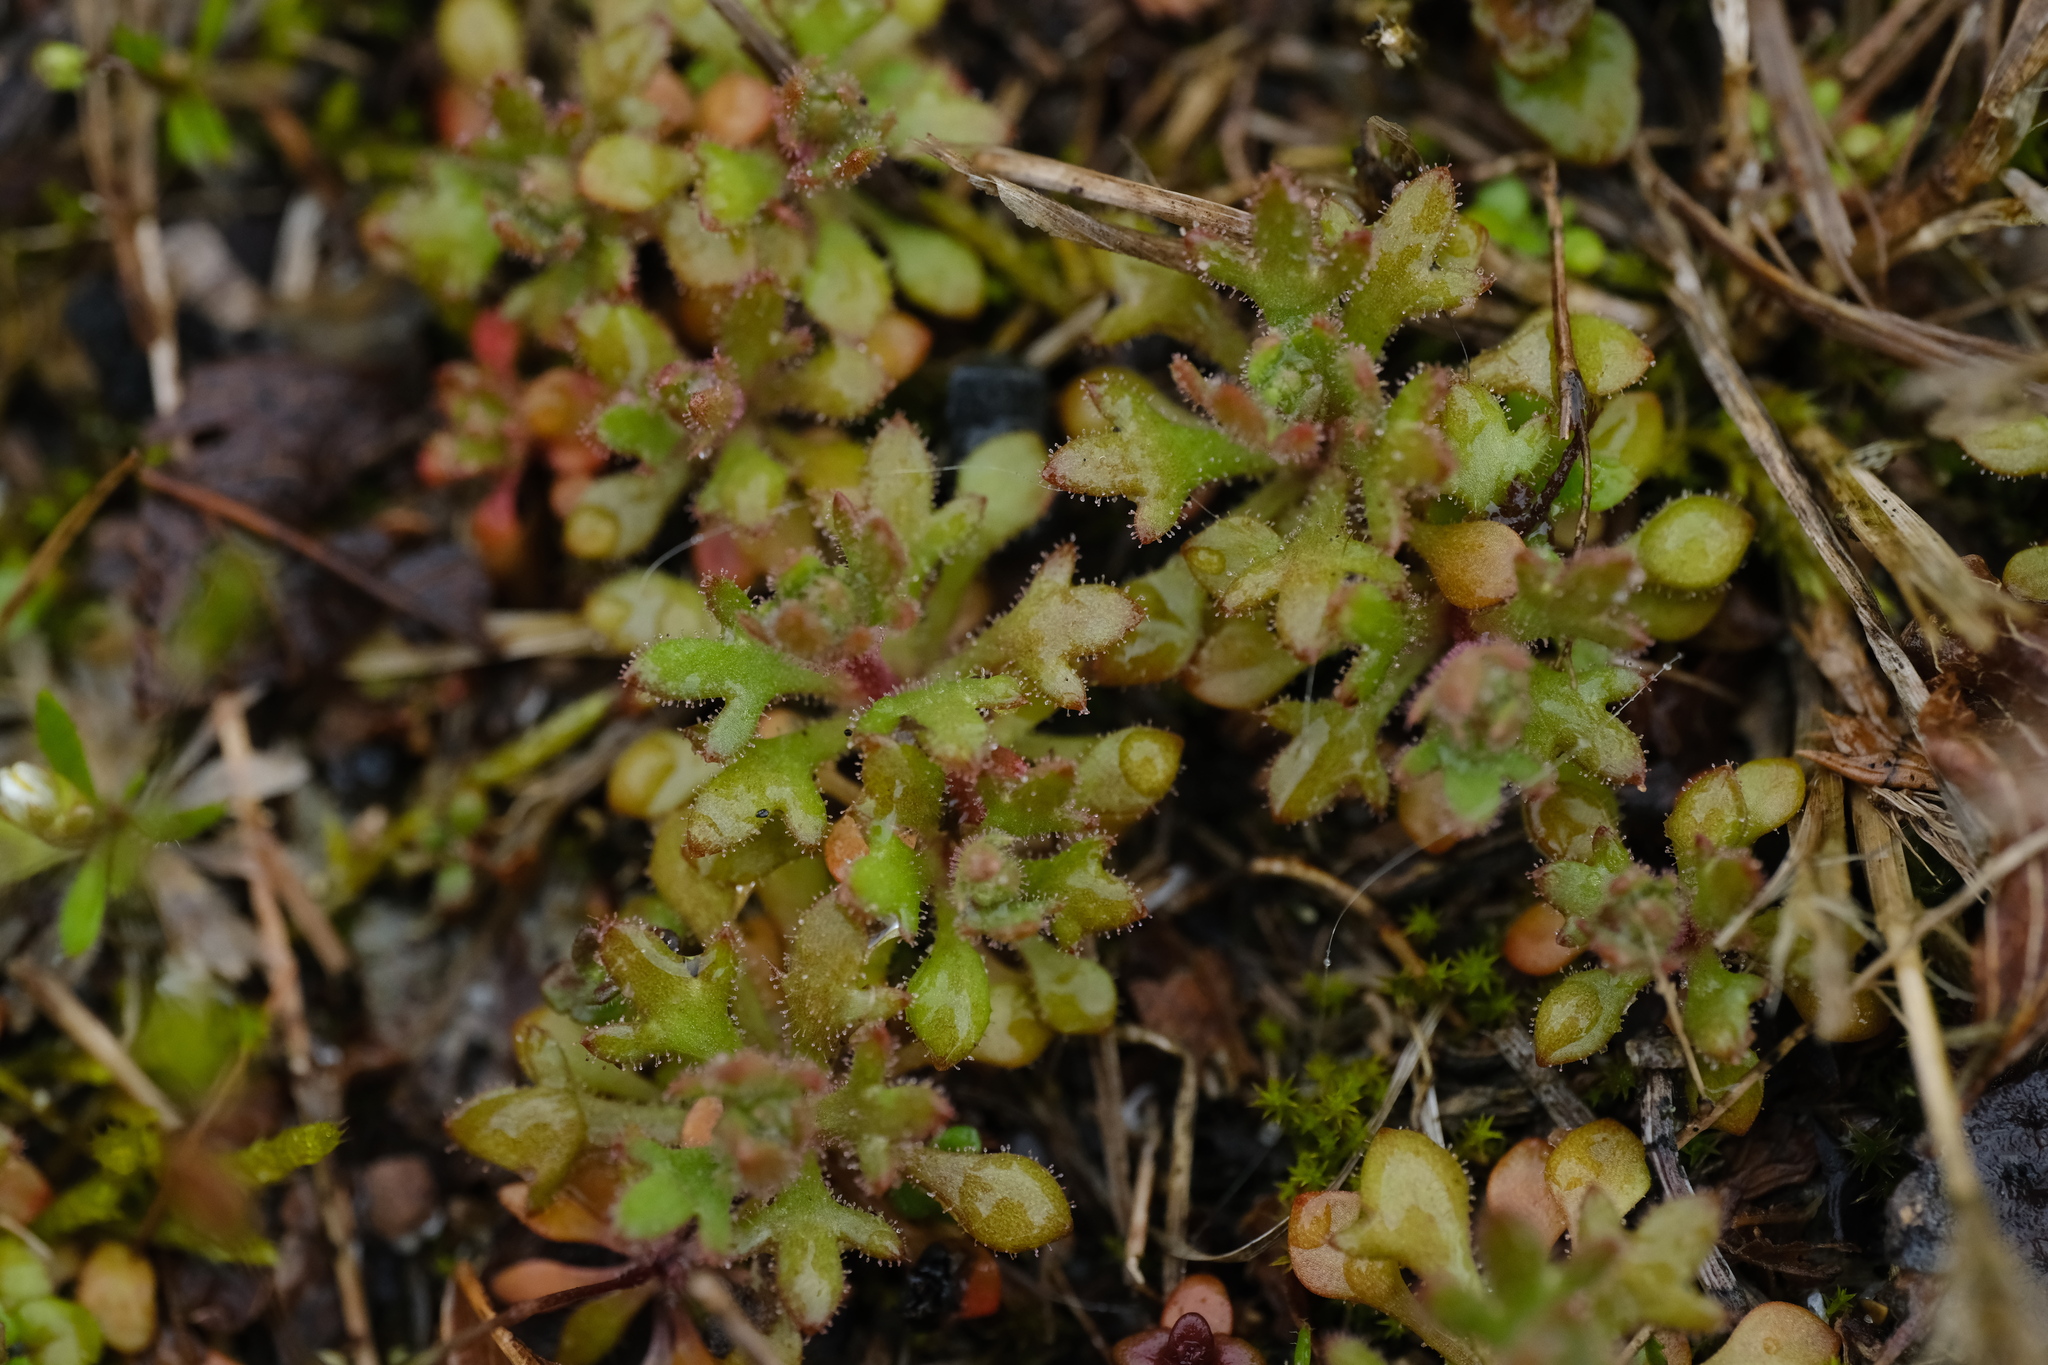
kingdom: Plantae
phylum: Tracheophyta
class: Magnoliopsida
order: Saxifragales
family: Saxifragaceae
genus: Saxifraga
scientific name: Saxifraga tridactylites
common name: Rue-leaved saxifrage
